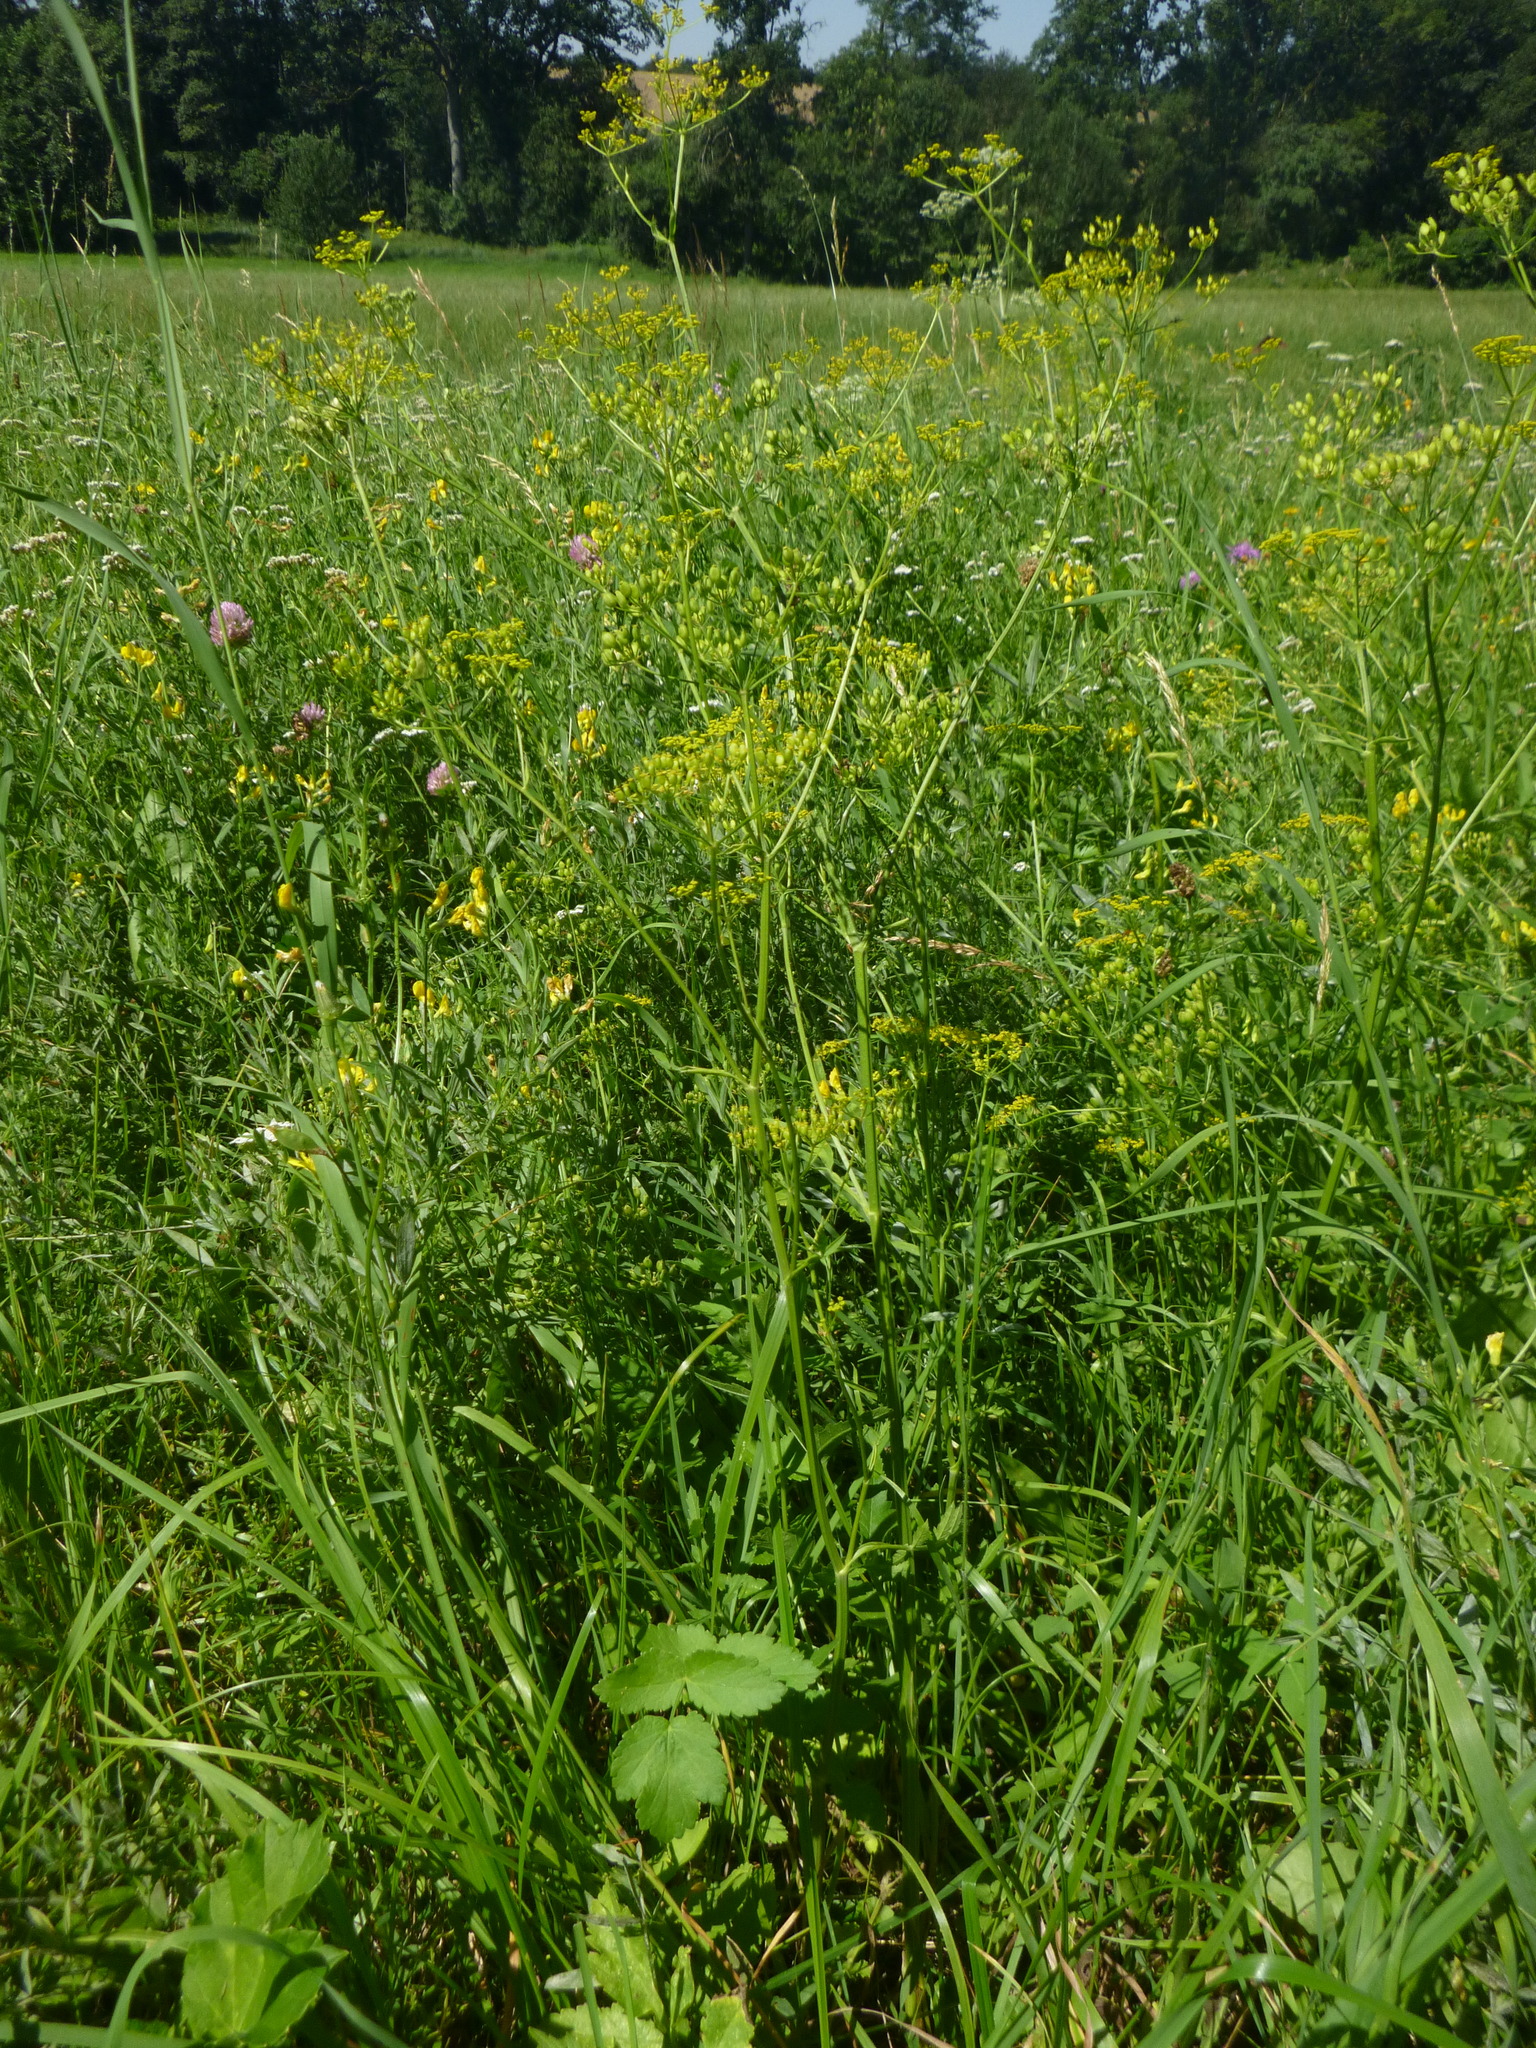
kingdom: Plantae
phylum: Tracheophyta
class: Magnoliopsida
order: Apiales
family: Apiaceae
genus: Pastinaca
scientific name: Pastinaca sativa
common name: Wild parsnip
